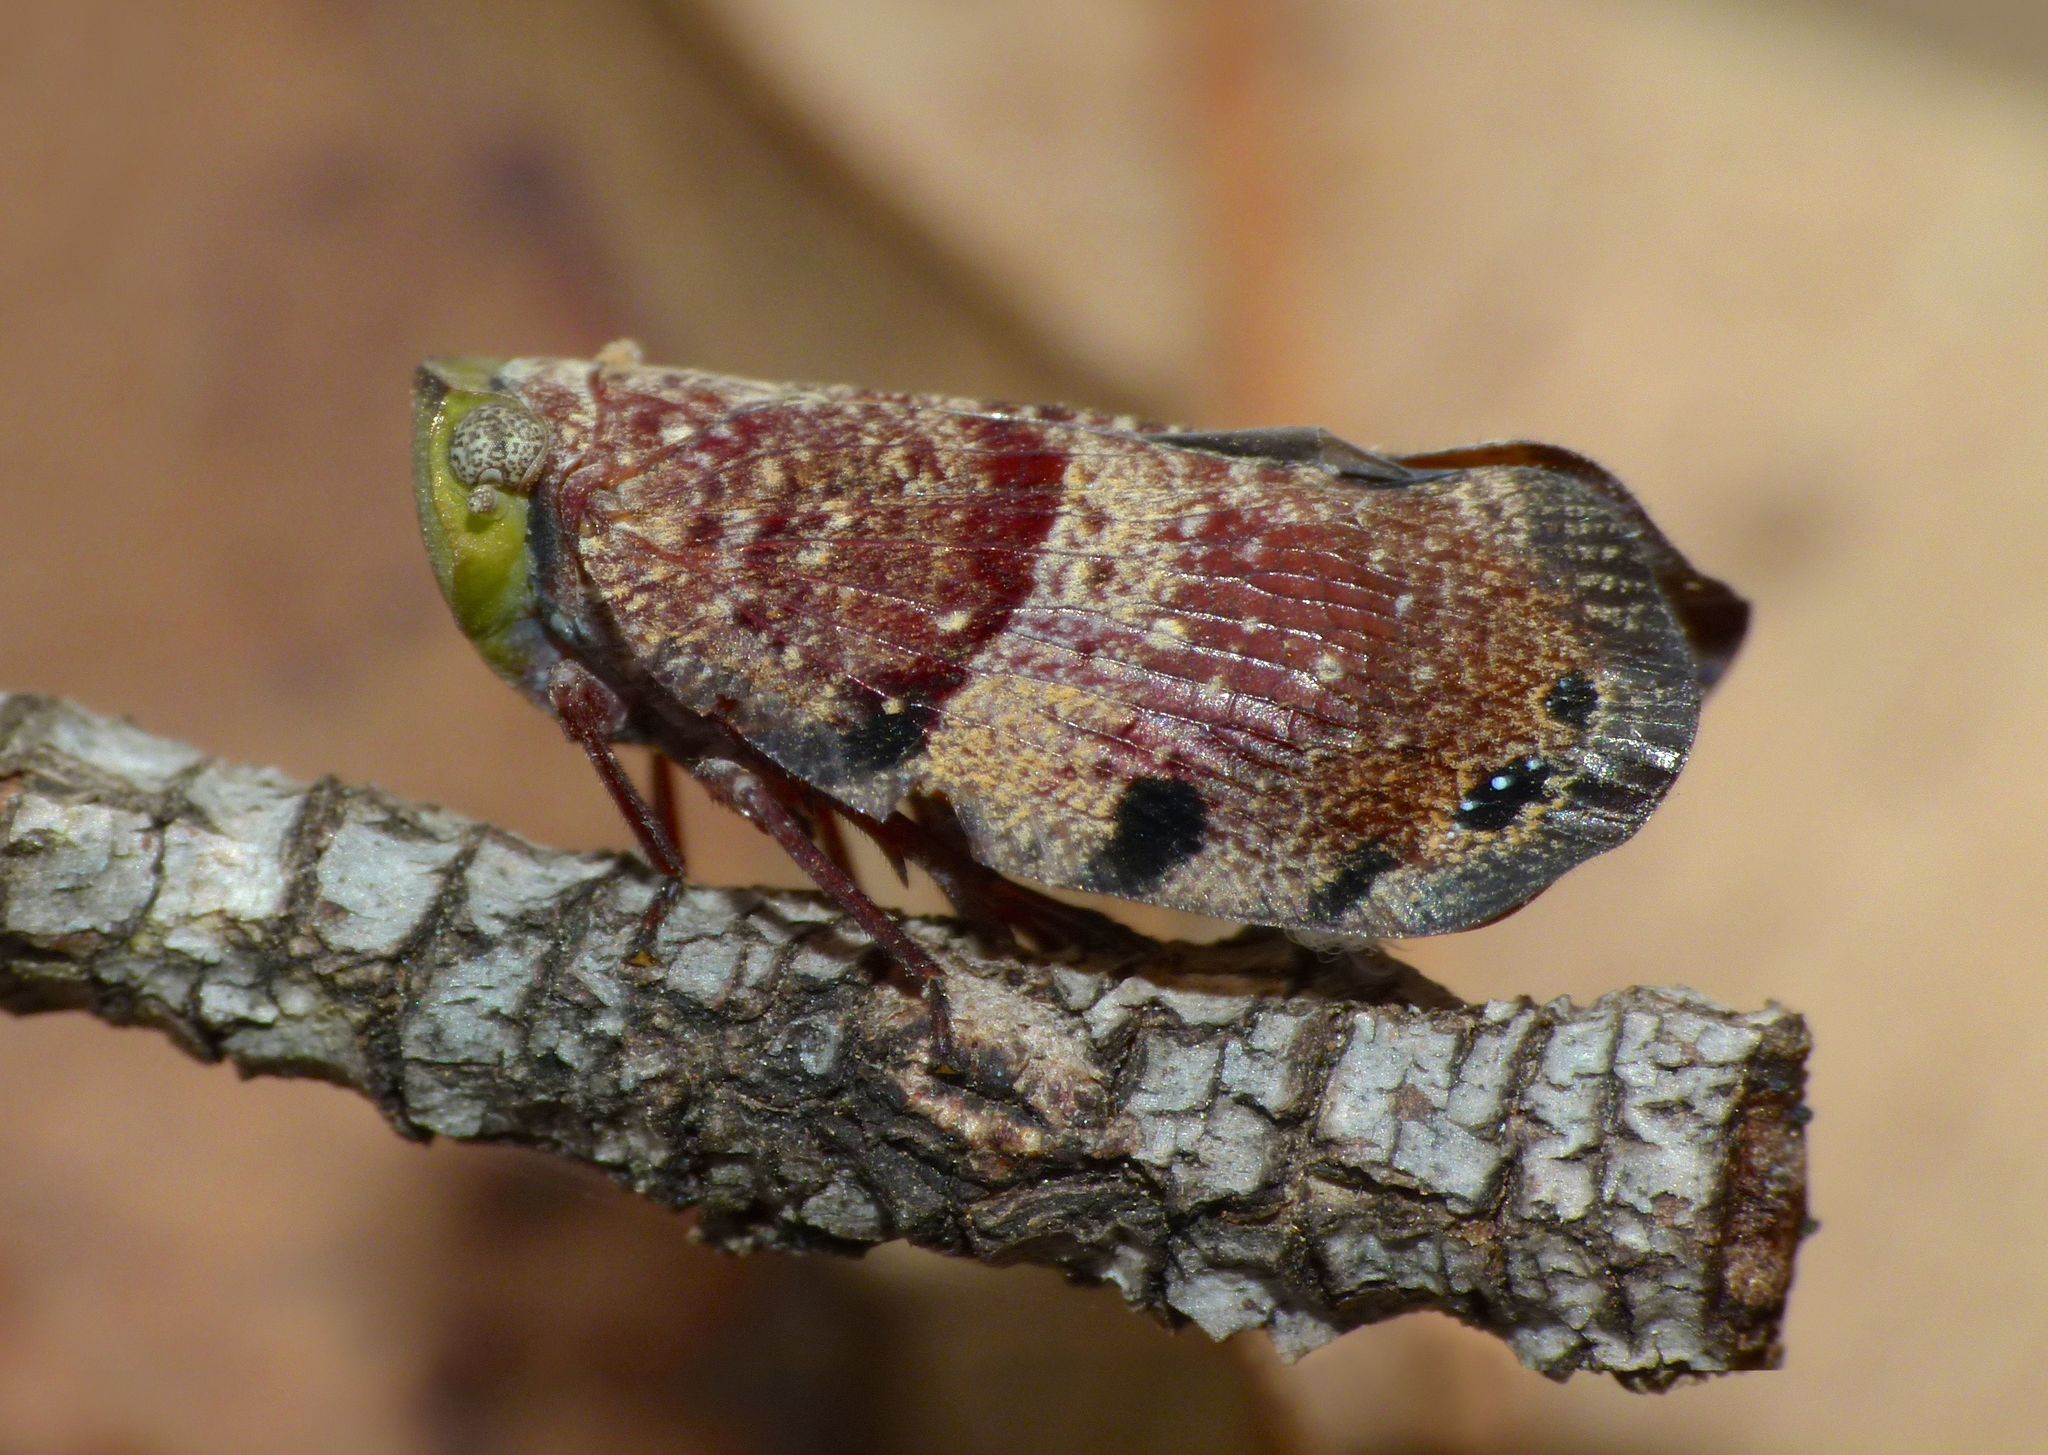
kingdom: Animalia
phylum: Arthropoda
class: Insecta
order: Hemiptera
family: Eurybrachidae
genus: Platybrachys
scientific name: Platybrachys decemmacula
